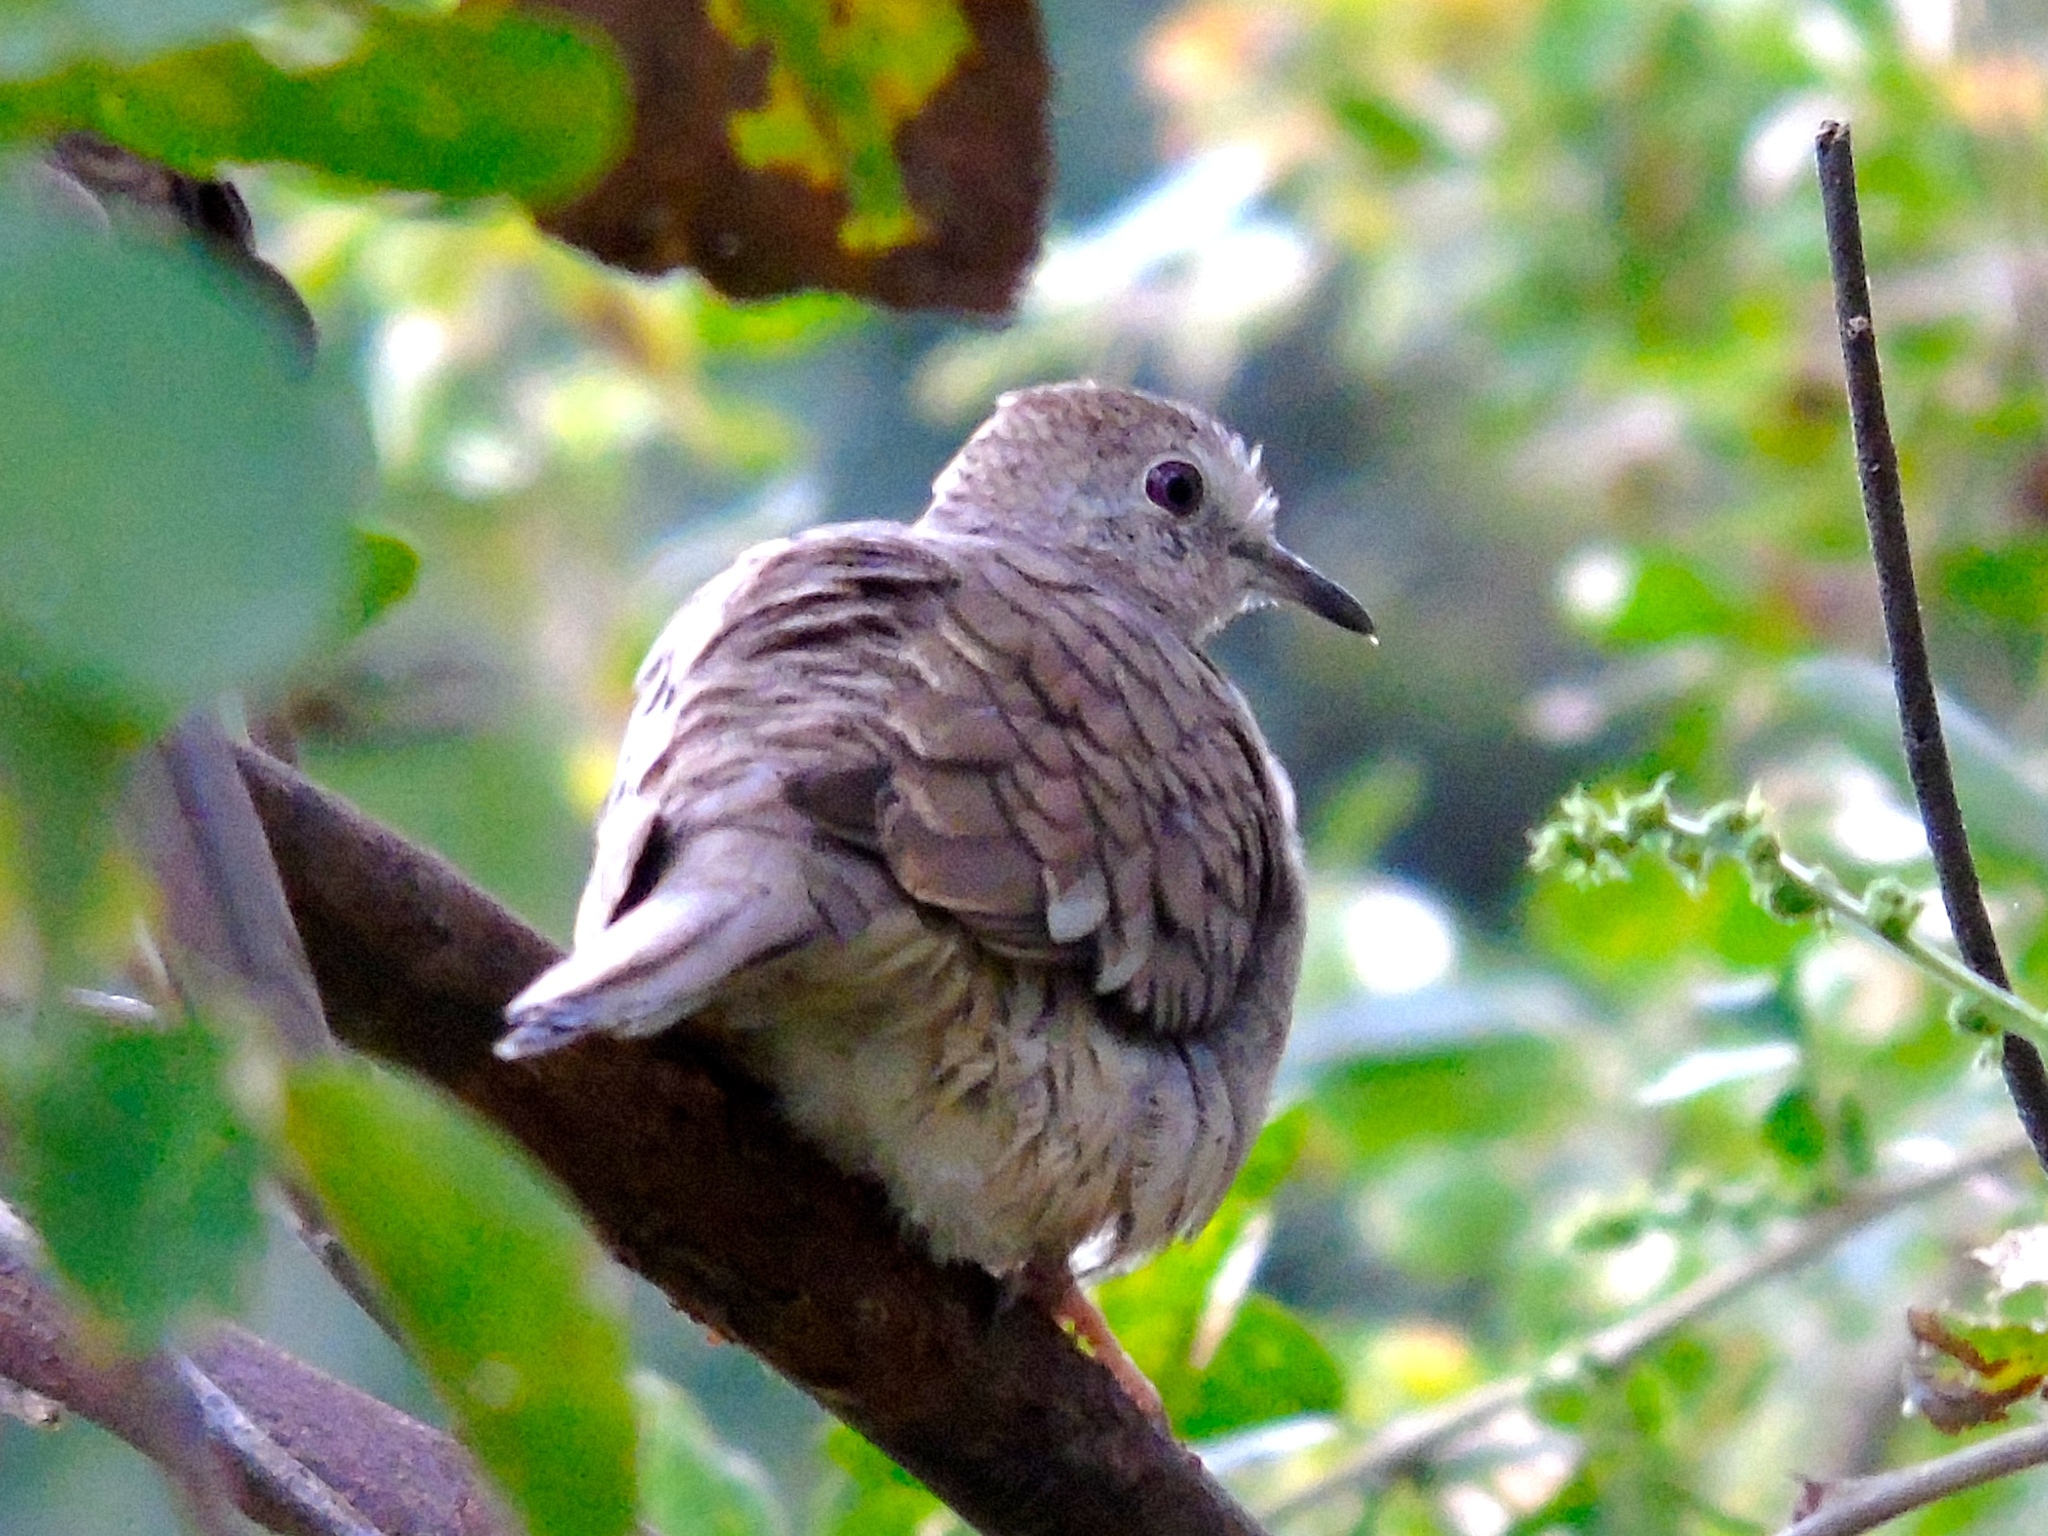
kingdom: Animalia
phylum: Chordata
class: Aves
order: Columbiformes
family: Columbidae
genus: Columbina
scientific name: Columbina inca
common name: Inca dove
